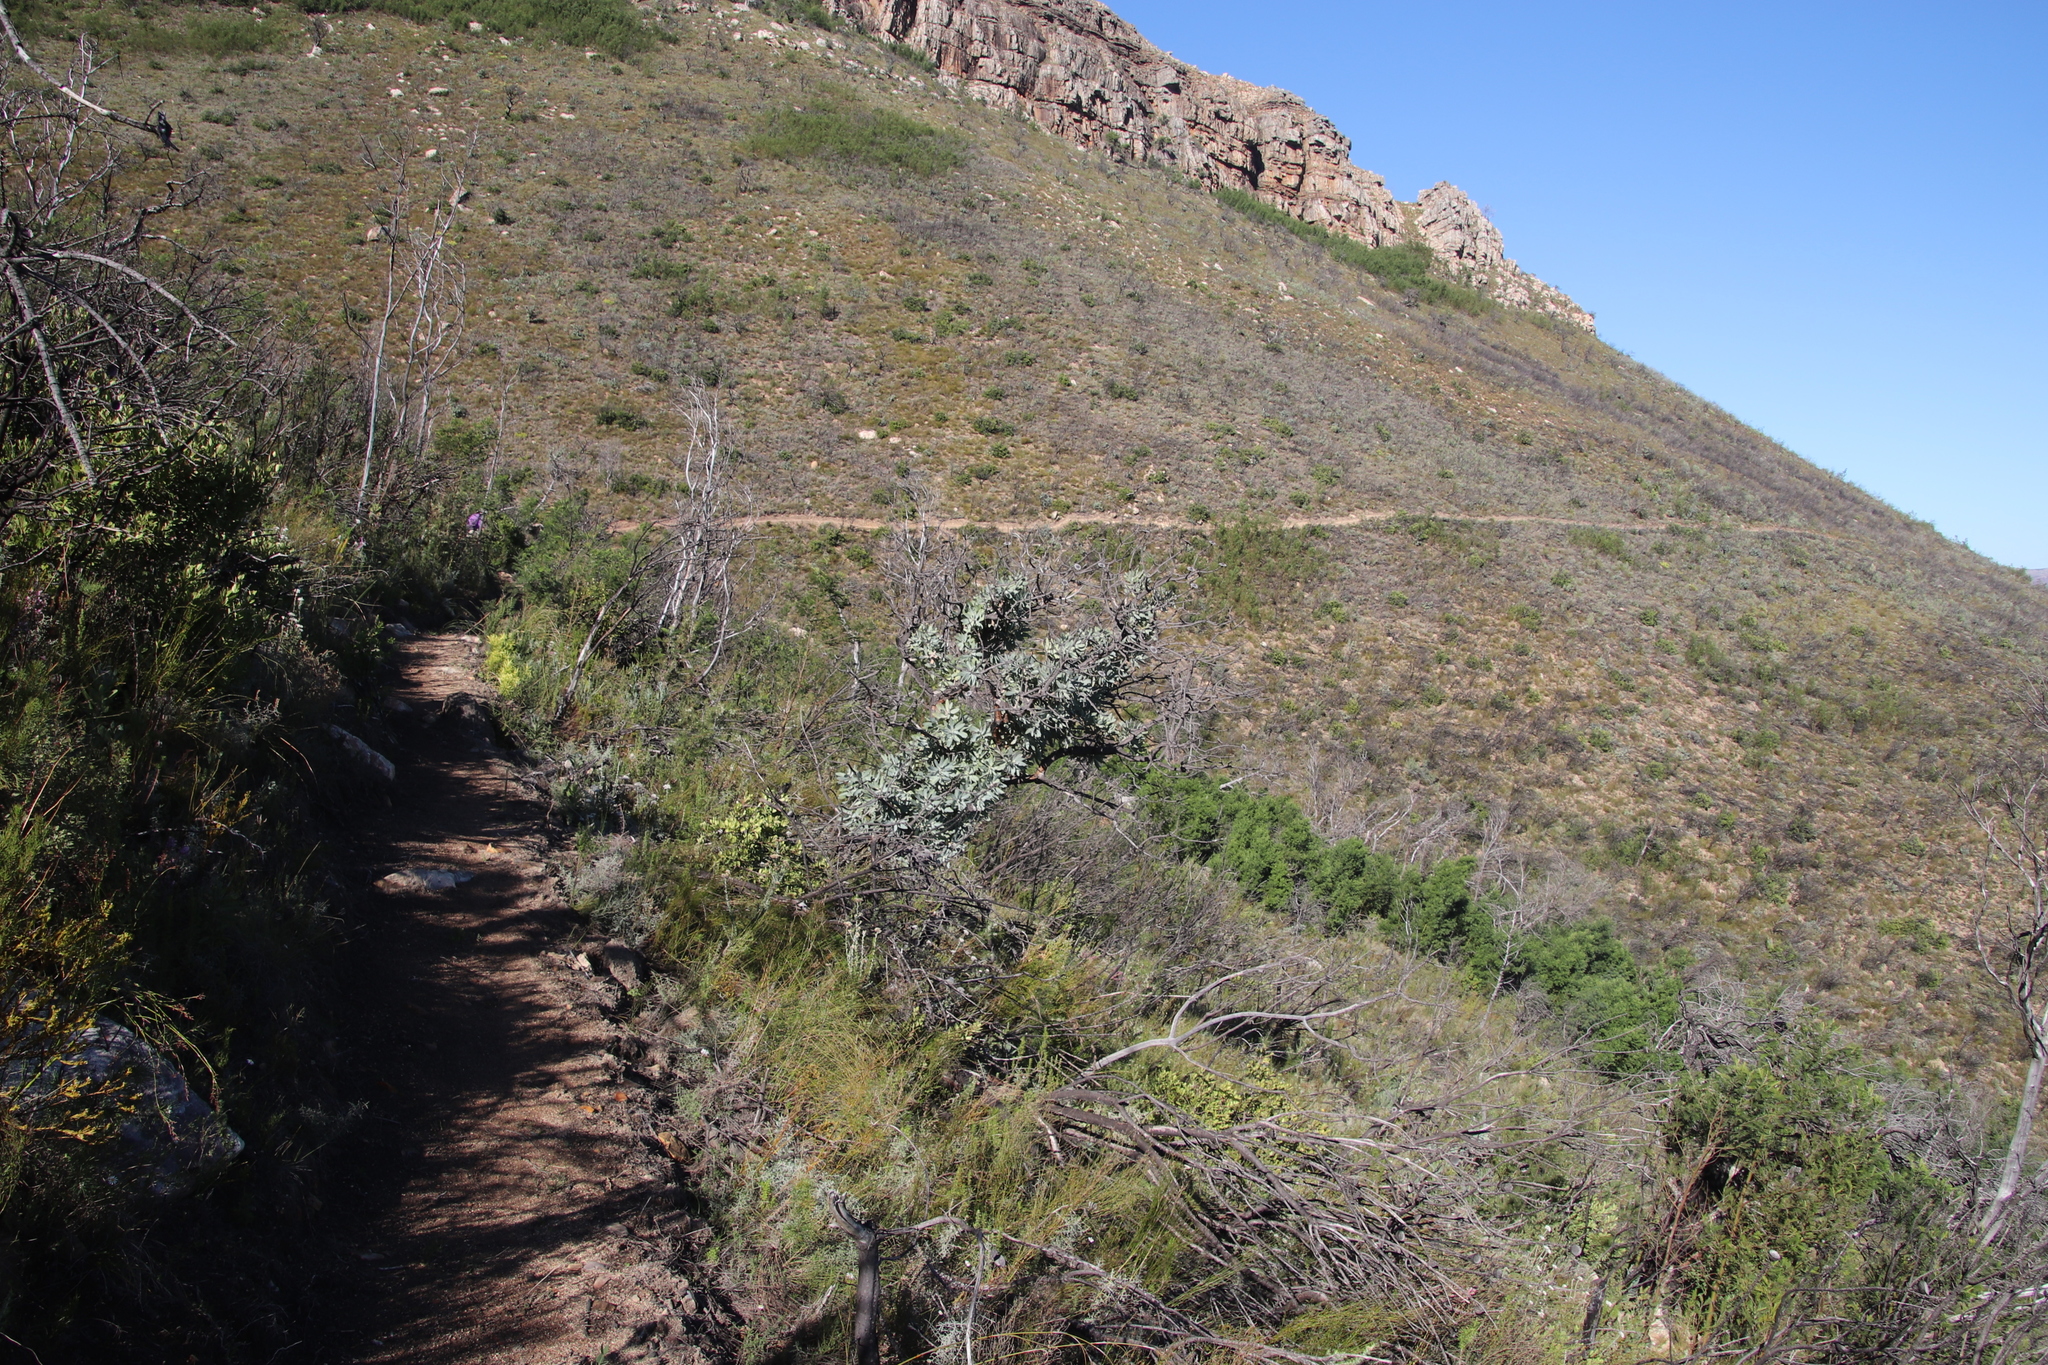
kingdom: Plantae
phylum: Tracheophyta
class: Magnoliopsida
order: Proteales
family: Proteaceae
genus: Protea
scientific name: Protea nitida
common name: Tree protea
